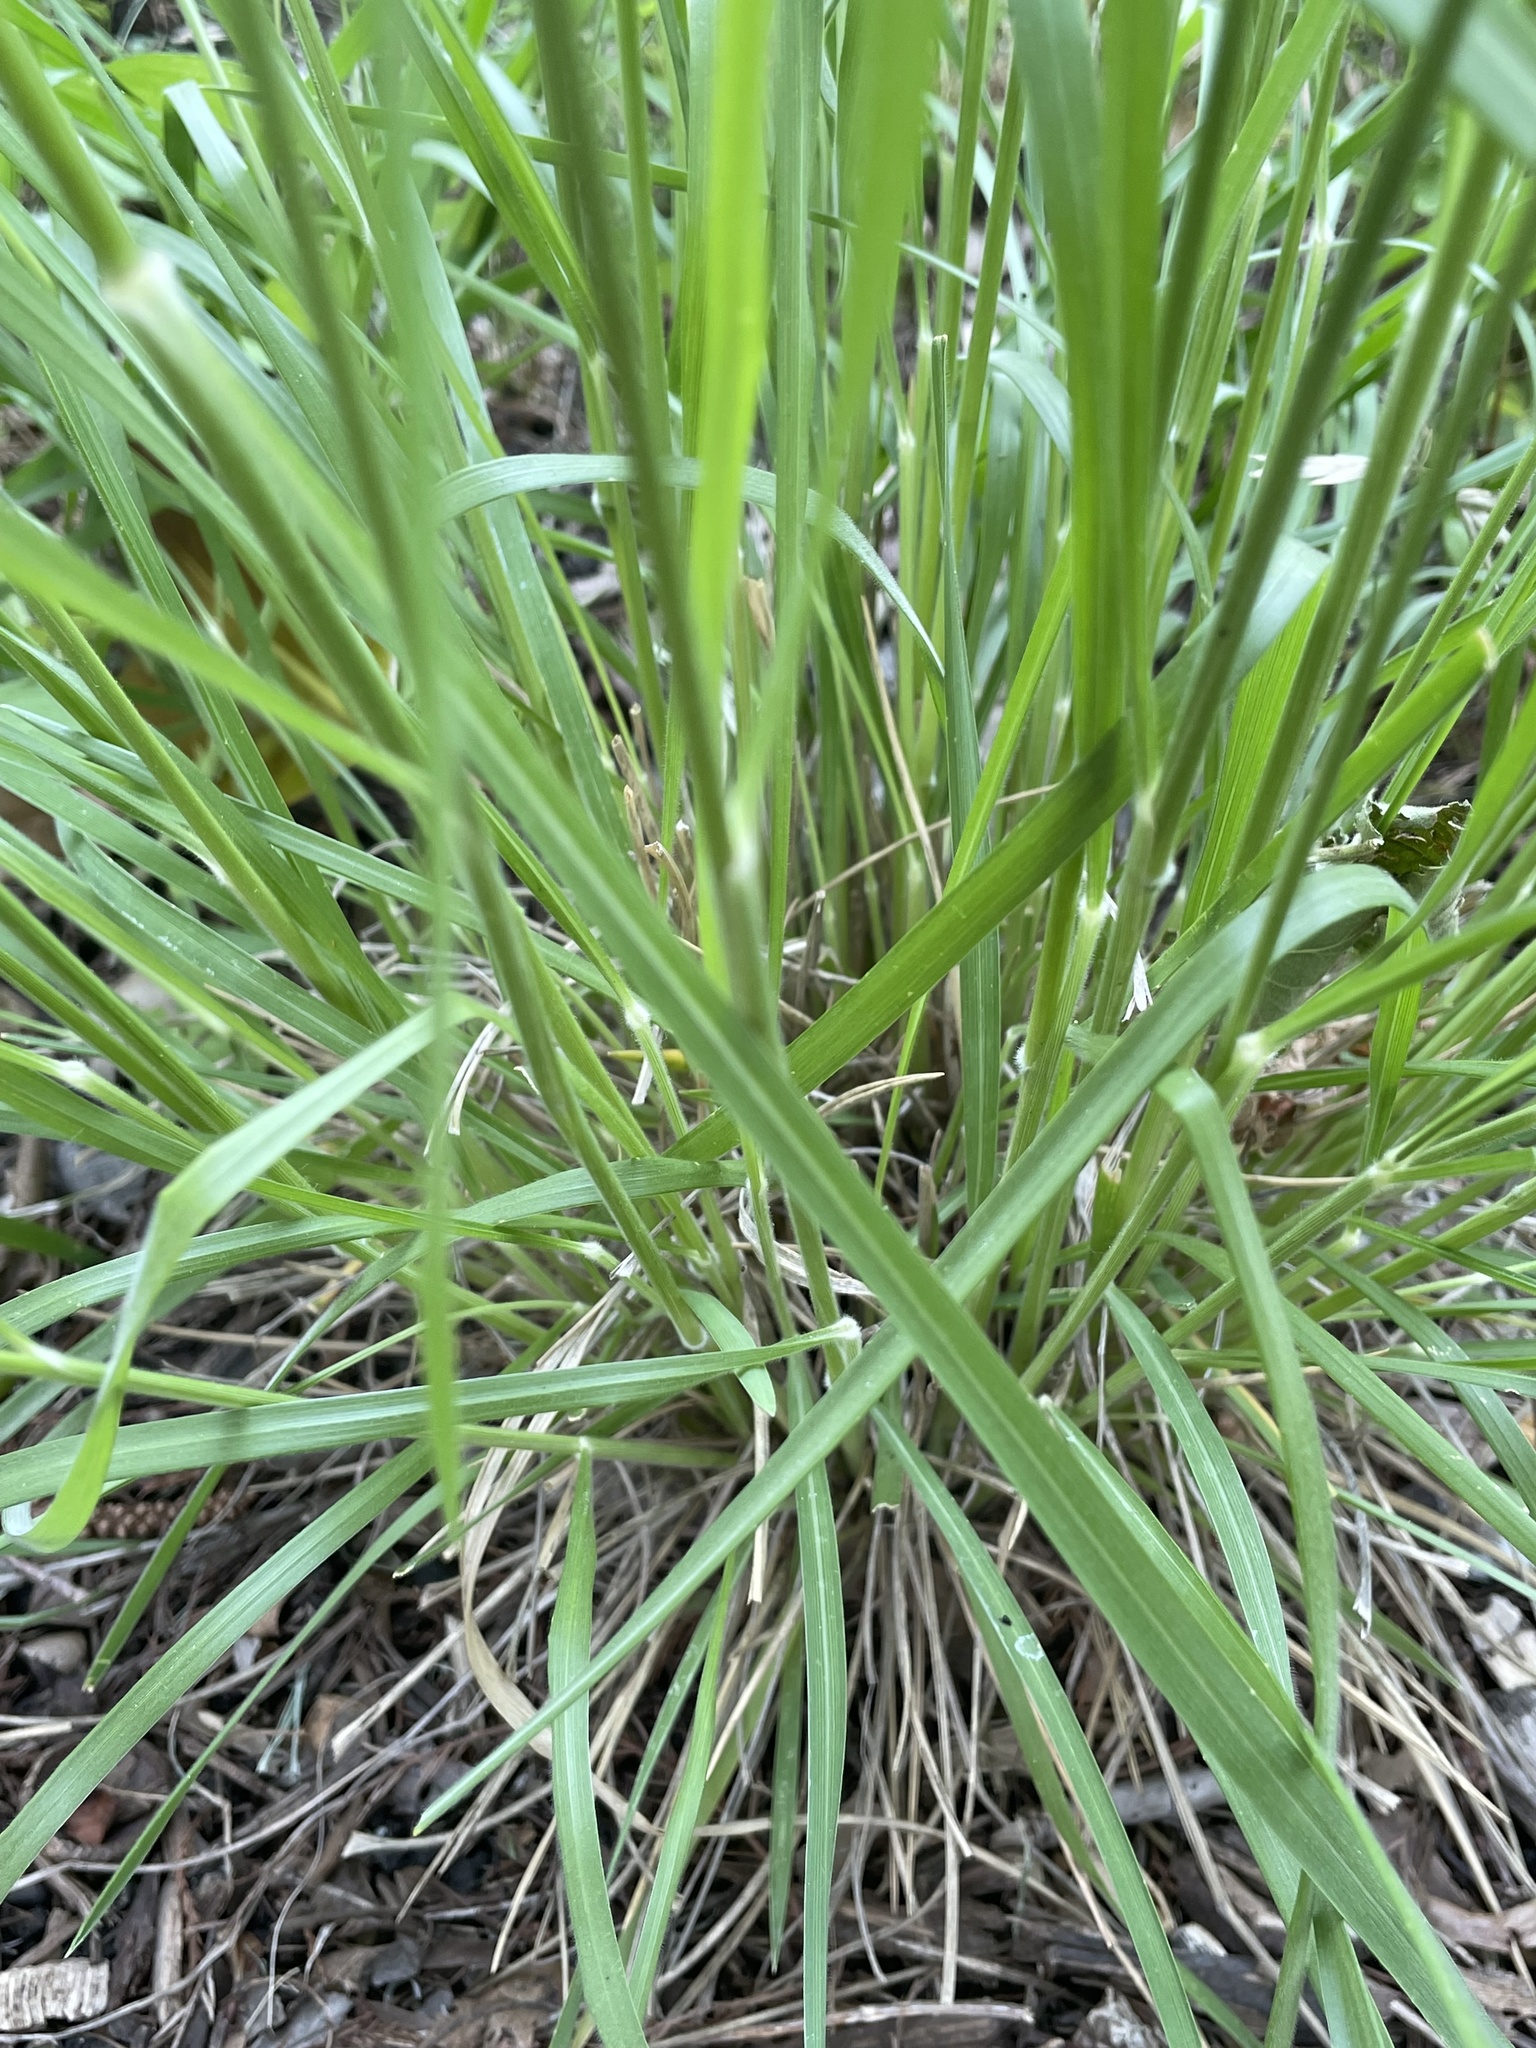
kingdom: Plantae
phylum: Tracheophyta
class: Liliopsida
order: Poales
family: Poaceae
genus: Eriochloa
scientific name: Eriochloa sericea
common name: Texas cup grass
